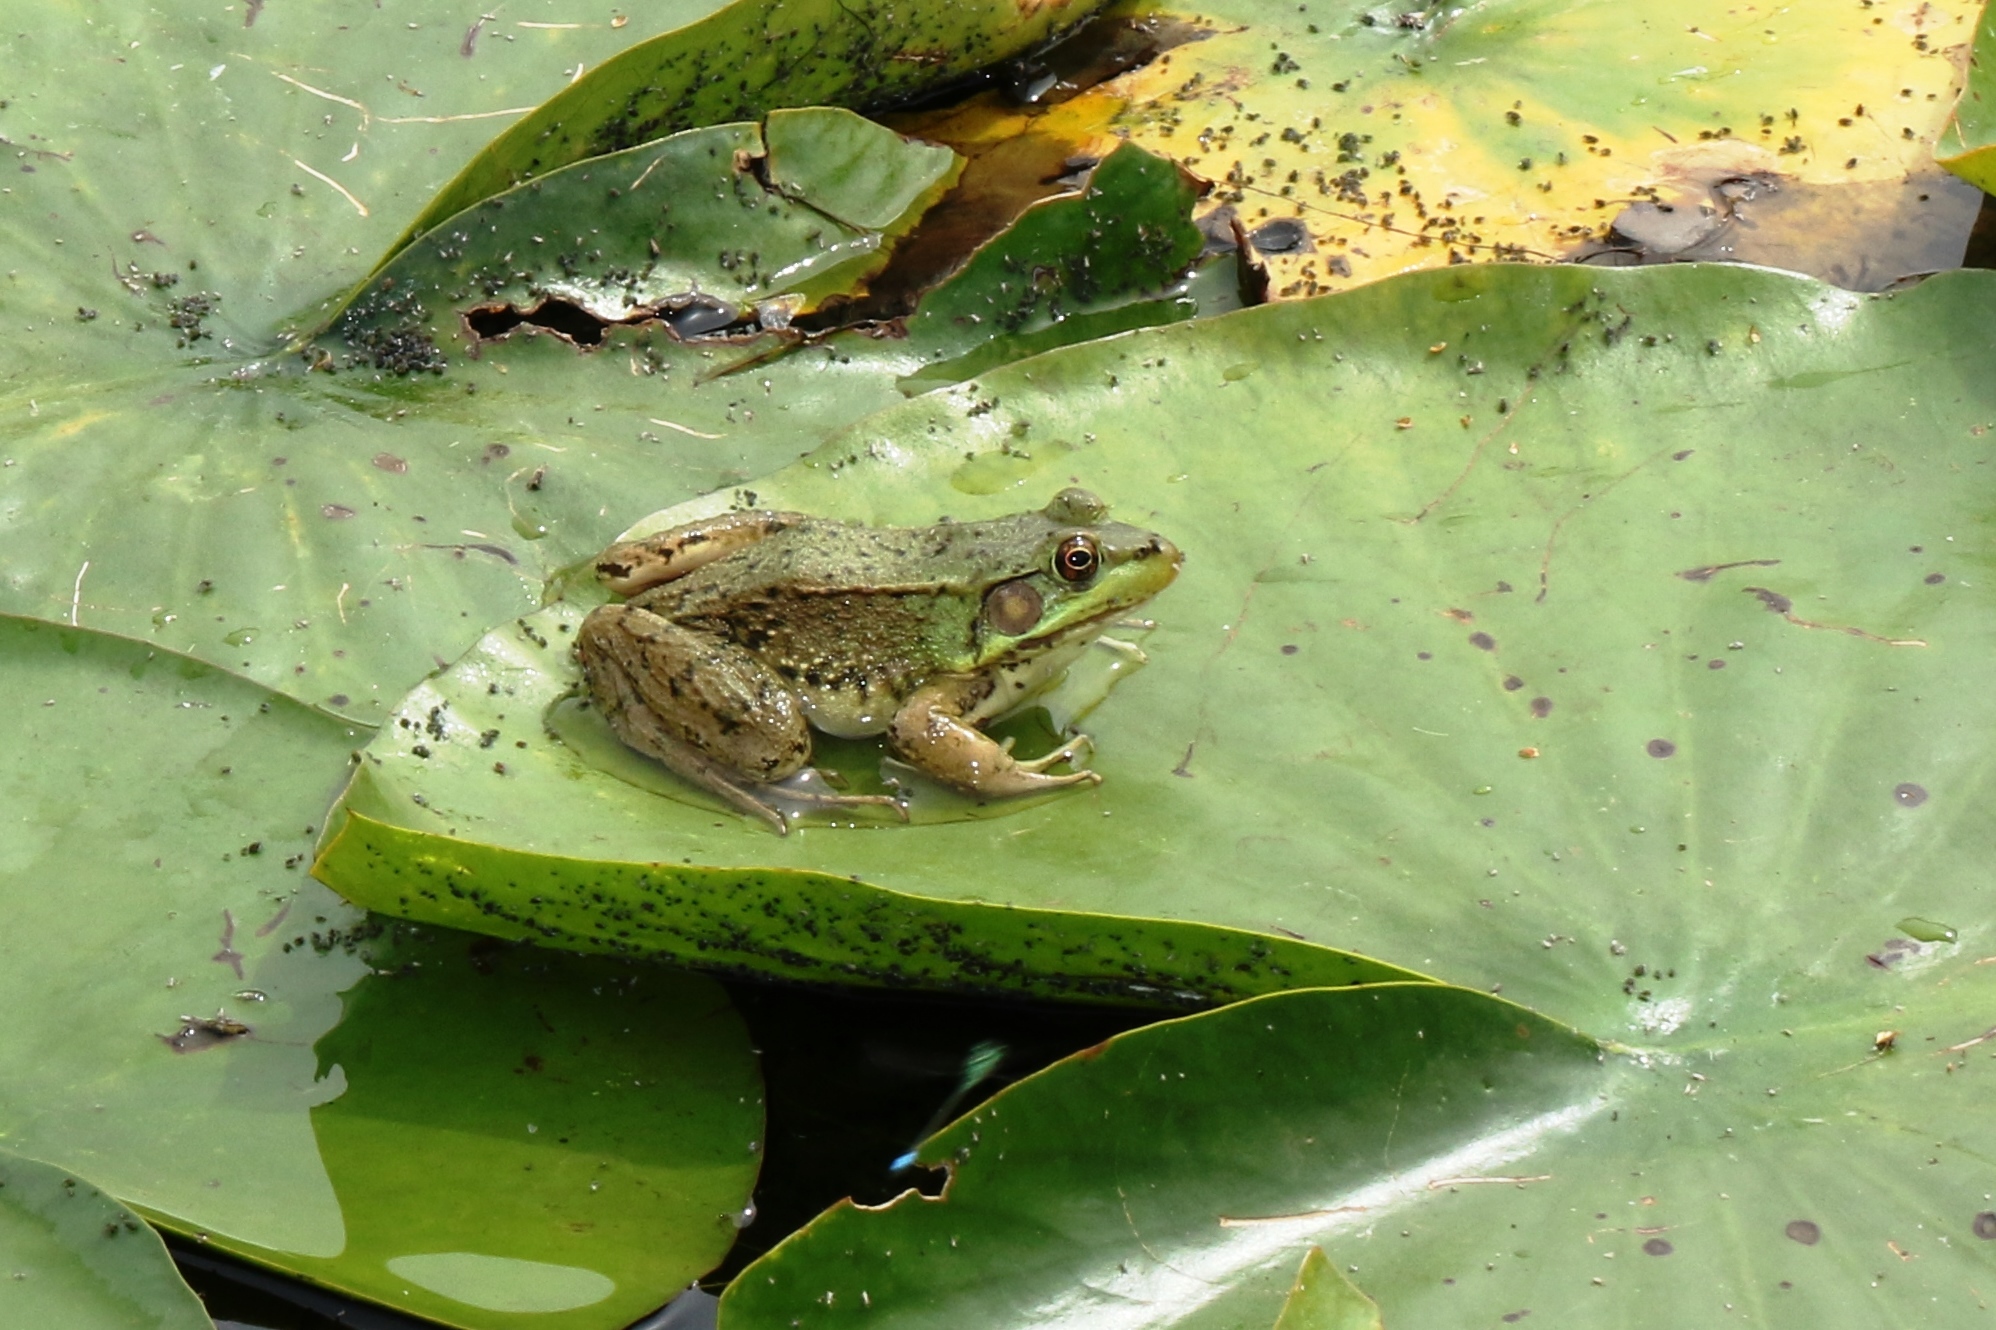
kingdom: Animalia
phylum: Chordata
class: Amphibia
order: Anura
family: Ranidae
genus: Lithobates
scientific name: Lithobates clamitans
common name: Green frog
